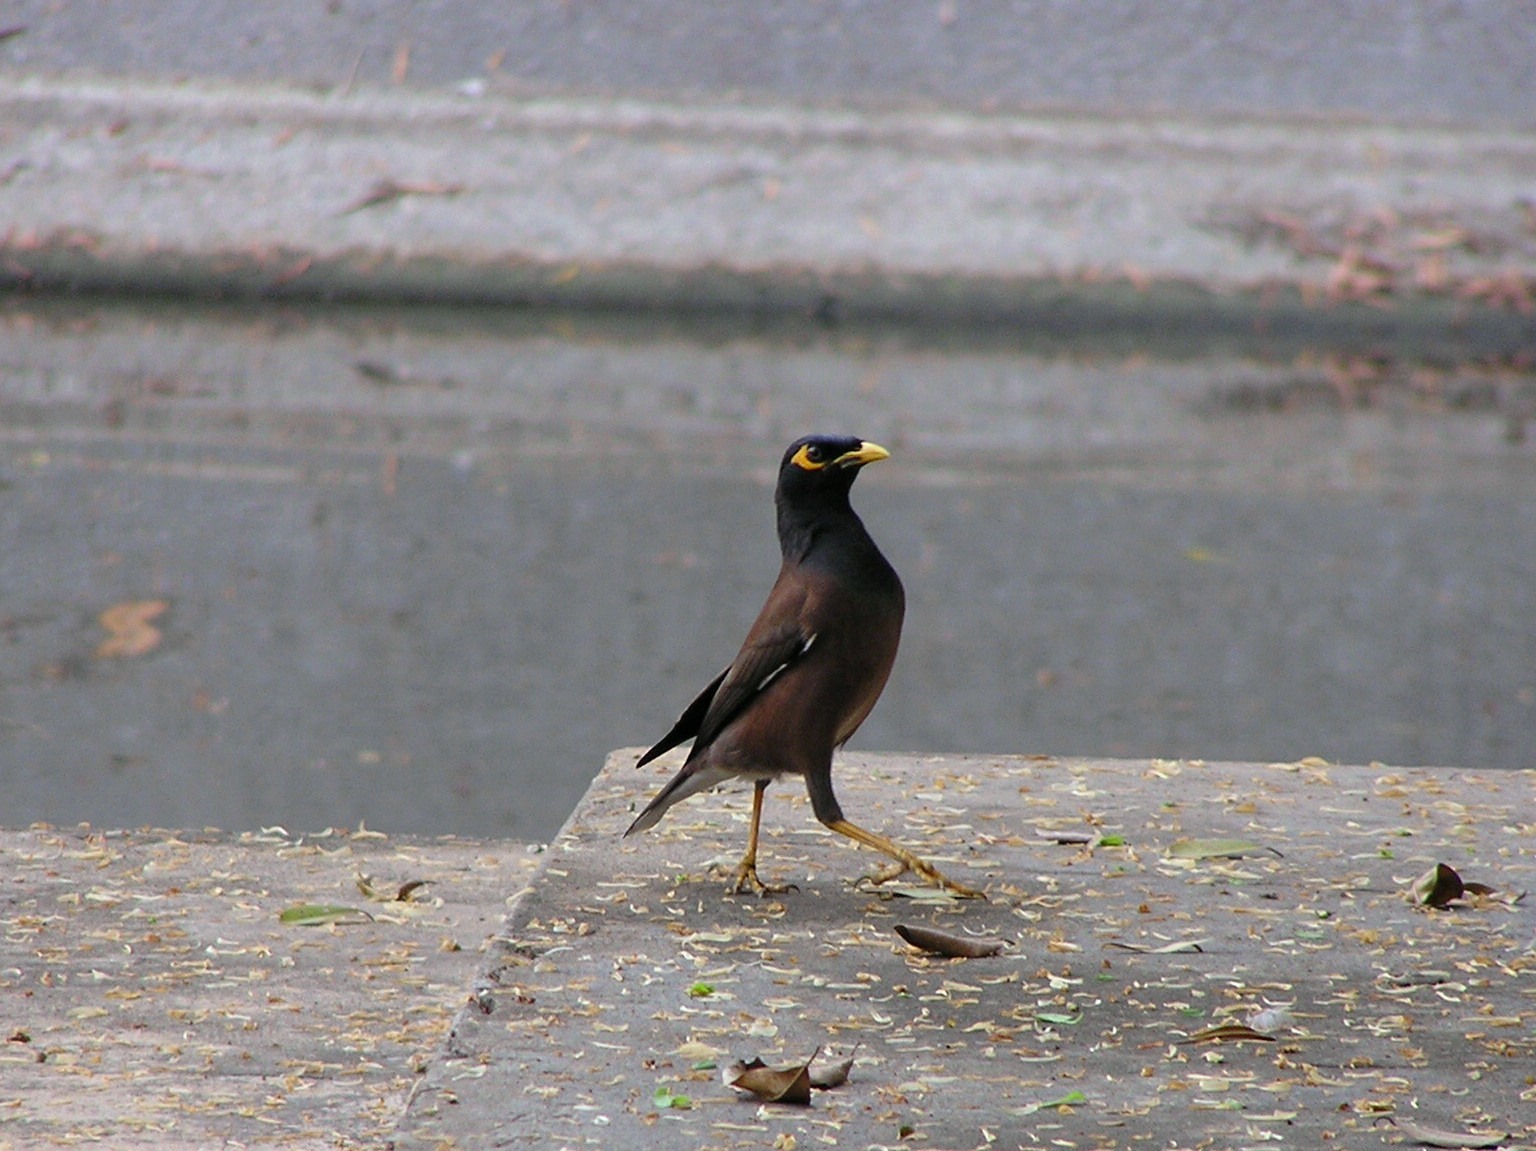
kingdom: Animalia
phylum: Chordata
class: Aves
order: Passeriformes
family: Sturnidae
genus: Acridotheres
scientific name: Acridotheres tristis
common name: Common myna
